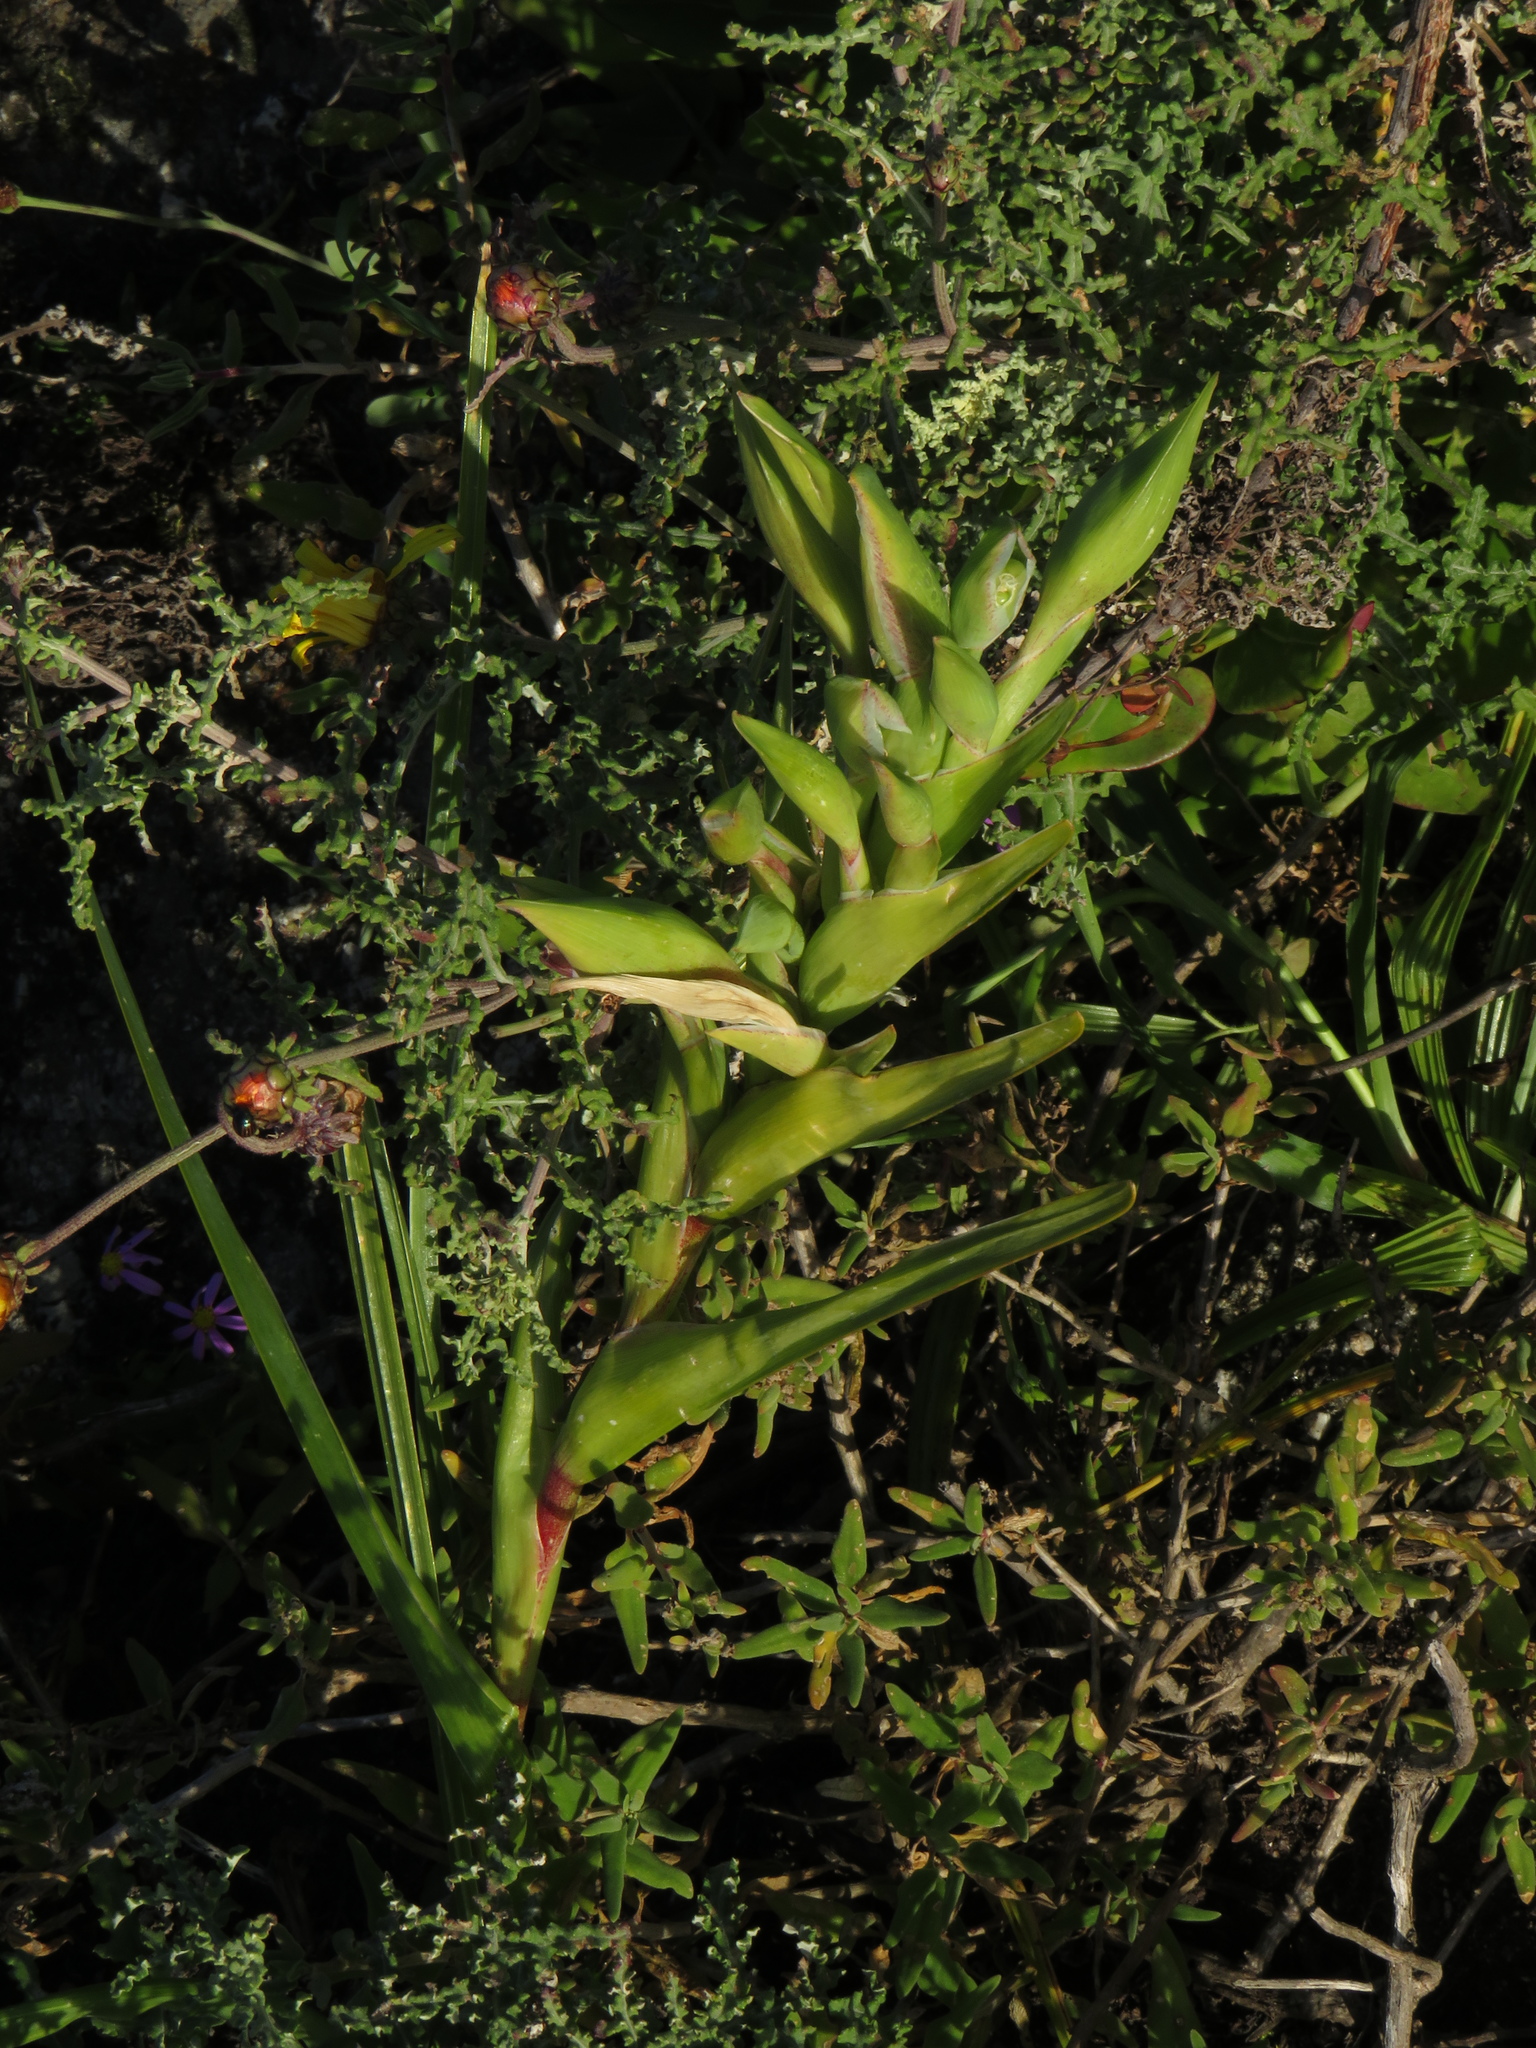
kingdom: Plantae
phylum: Tracheophyta
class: Liliopsida
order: Asparagales
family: Iridaceae
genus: Ferraria
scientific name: Ferraria crispa
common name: Black-flag
